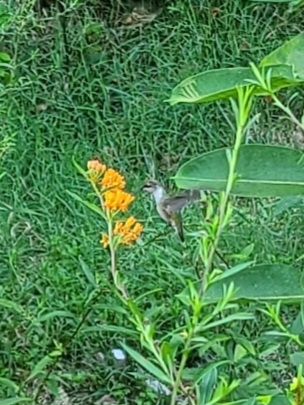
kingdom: Animalia
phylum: Chordata
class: Aves
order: Apodiformes
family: Trochilidae
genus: Archilochus
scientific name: Archilochus colubris
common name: Ruby-throated hummingbird
